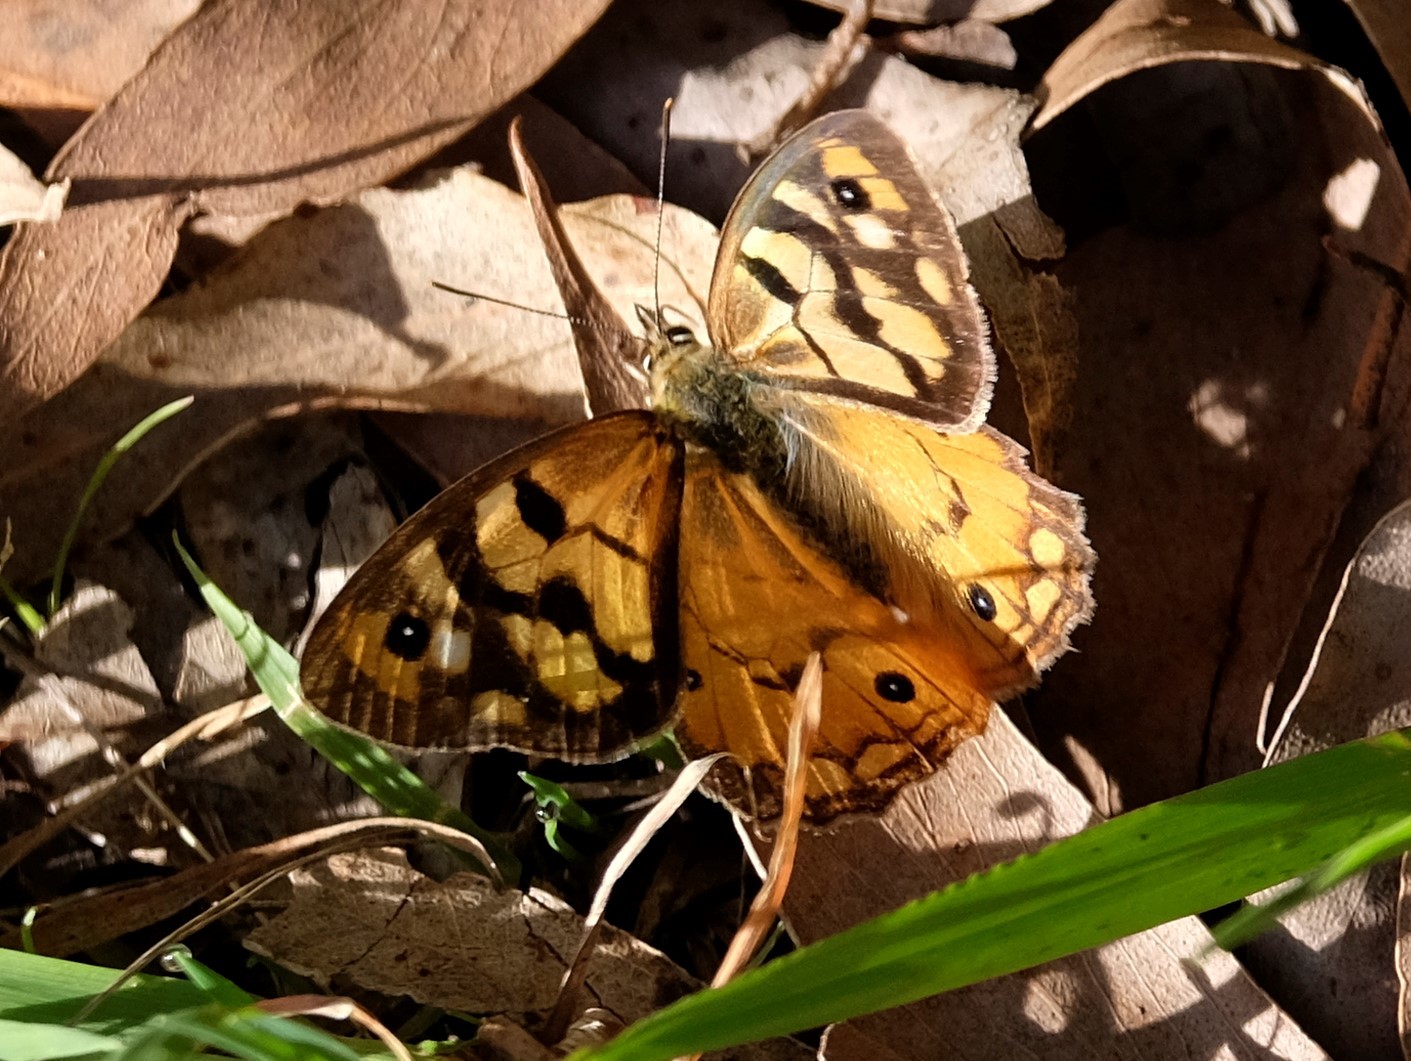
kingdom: Animalia
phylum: Arthropoda
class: Insecta
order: Lepidoptera
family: Nymphalidae
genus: Heteronympha
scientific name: Heteronympha merope
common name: Common brown
